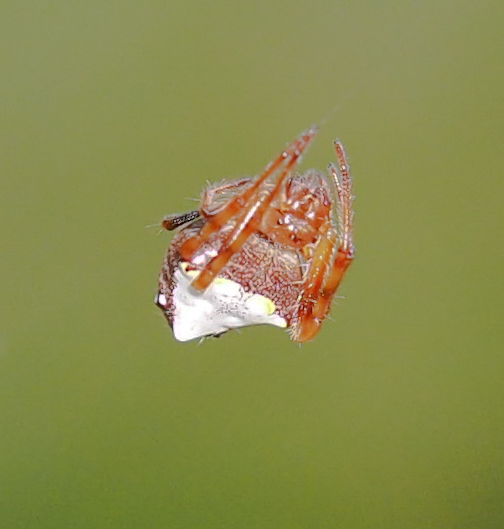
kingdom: Animalia
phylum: Arthropoda
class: Arachnida
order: Araneae
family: Araneidae
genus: Verrucosa
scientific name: Verrucosa arenata
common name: Orb weavers
